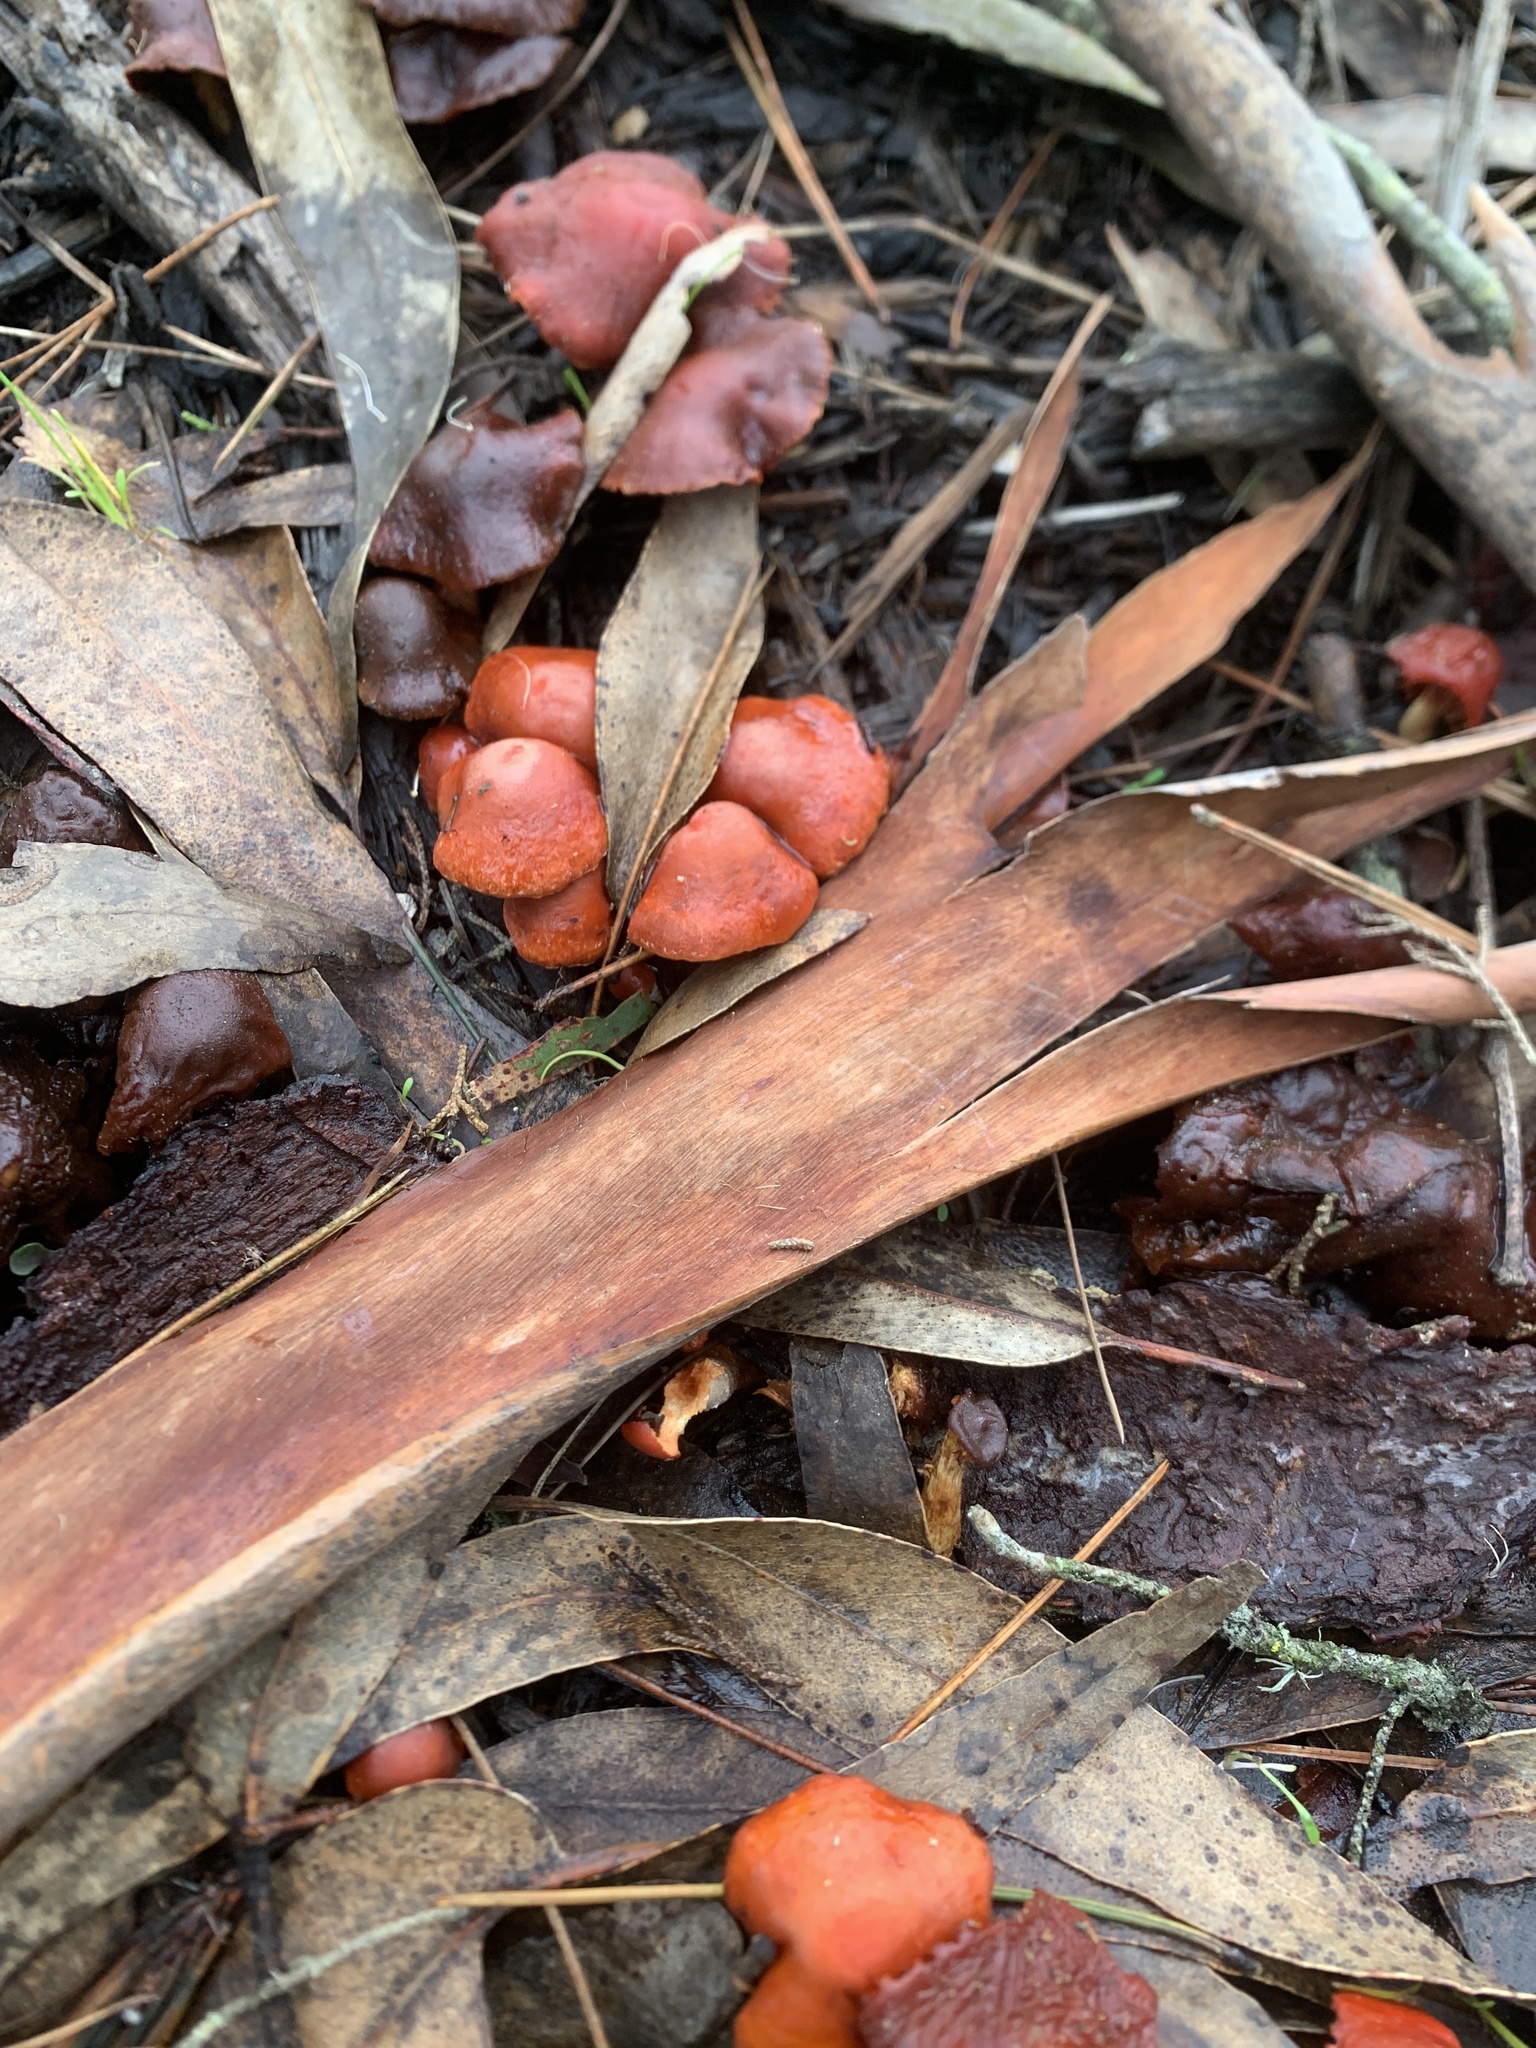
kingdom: Fungi
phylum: Basidiomycota
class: Agaricomycetes
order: Agaricales
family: Strophariaceae
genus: Leratiomyces
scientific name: Leratiomyces ceres
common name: Redlead roundhead
